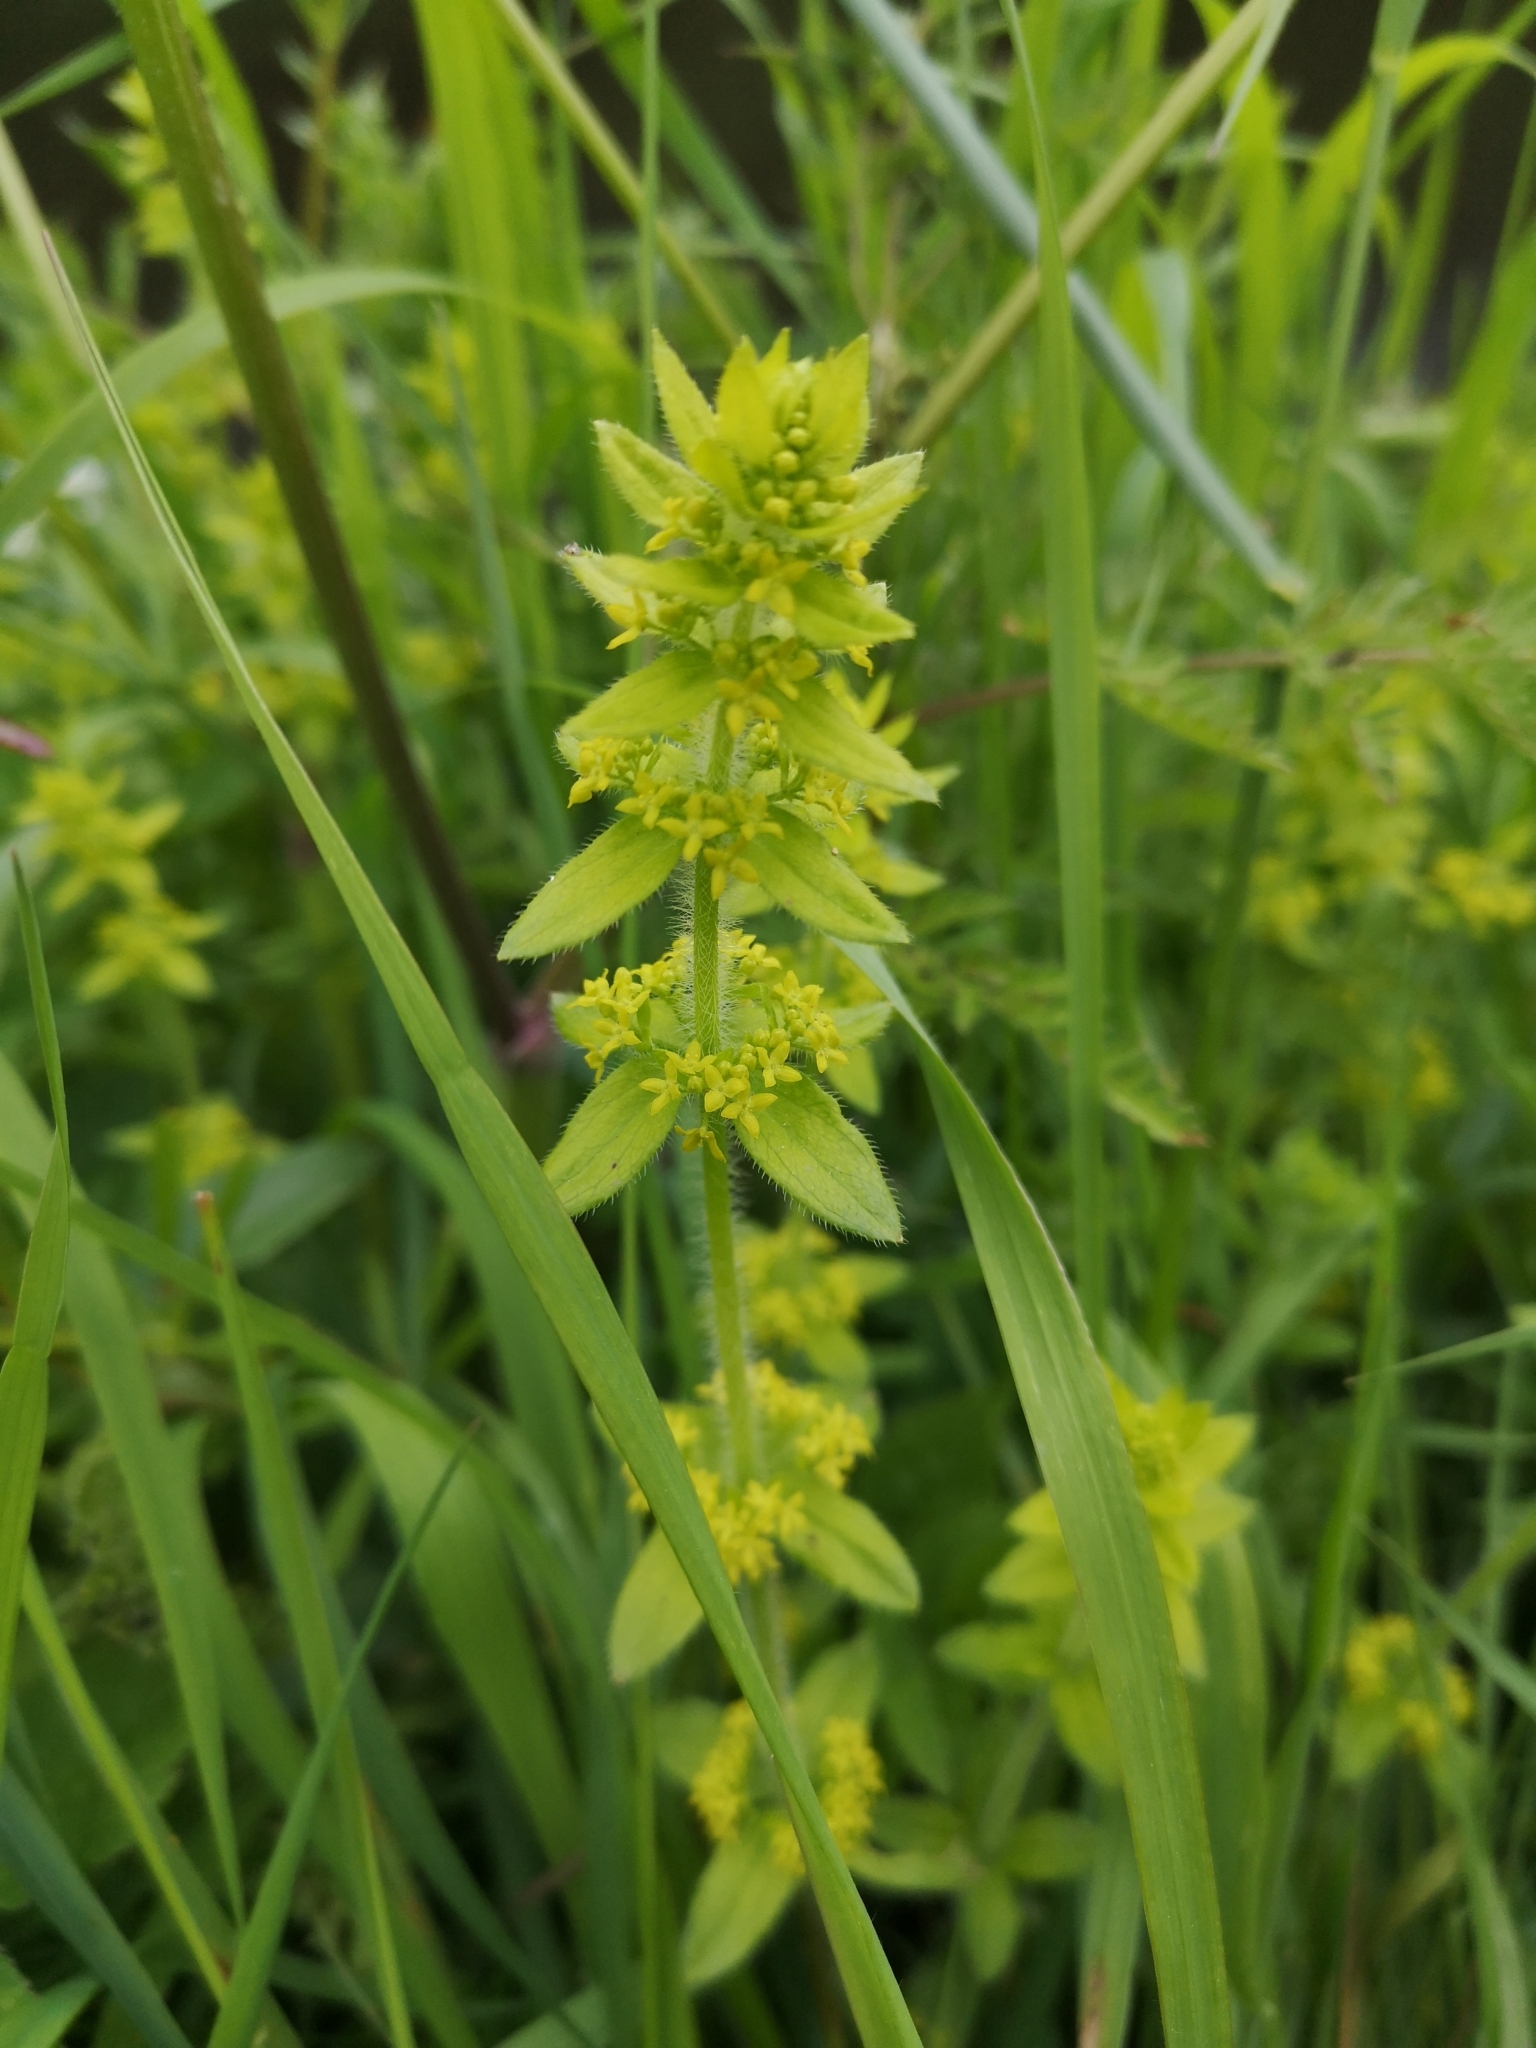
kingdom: Plantae
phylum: Tracheophyta
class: Magnoliopsida
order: Gentianales
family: Rubiaceae
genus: Cruciata
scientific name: Cruciata laevipes
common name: Crosswort
